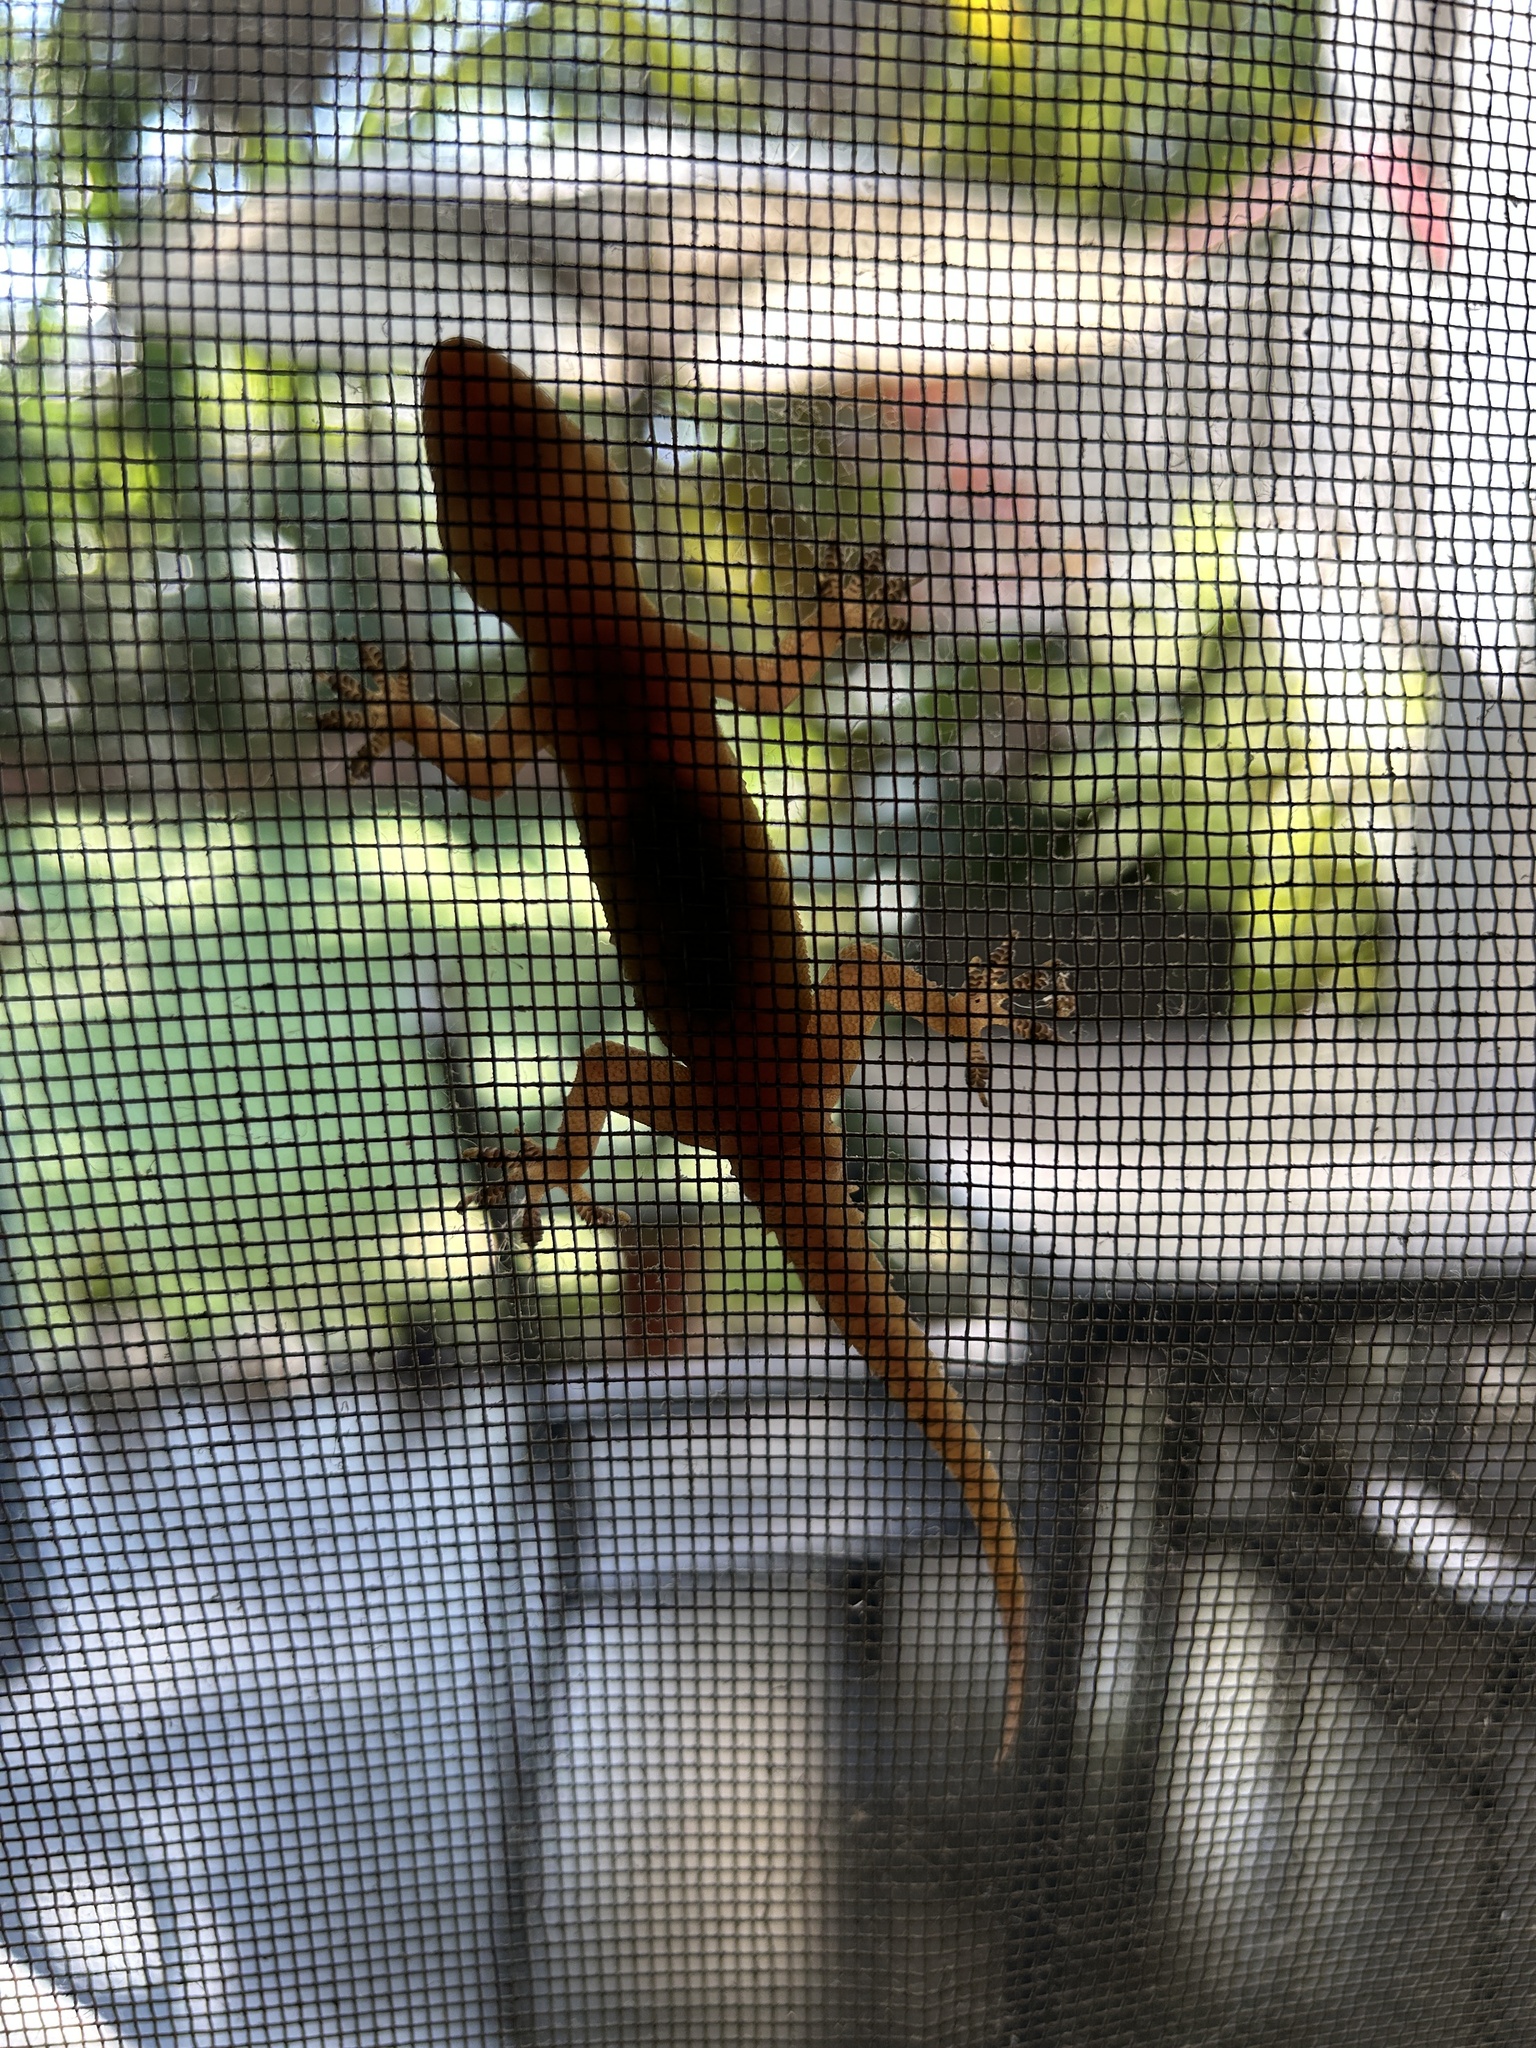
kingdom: Animalia
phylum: Chordata
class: Squamata
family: Gekkonidae
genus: Hemidactylus
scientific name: Hemidactylus platyurus
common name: Flat-tailed house gecko
